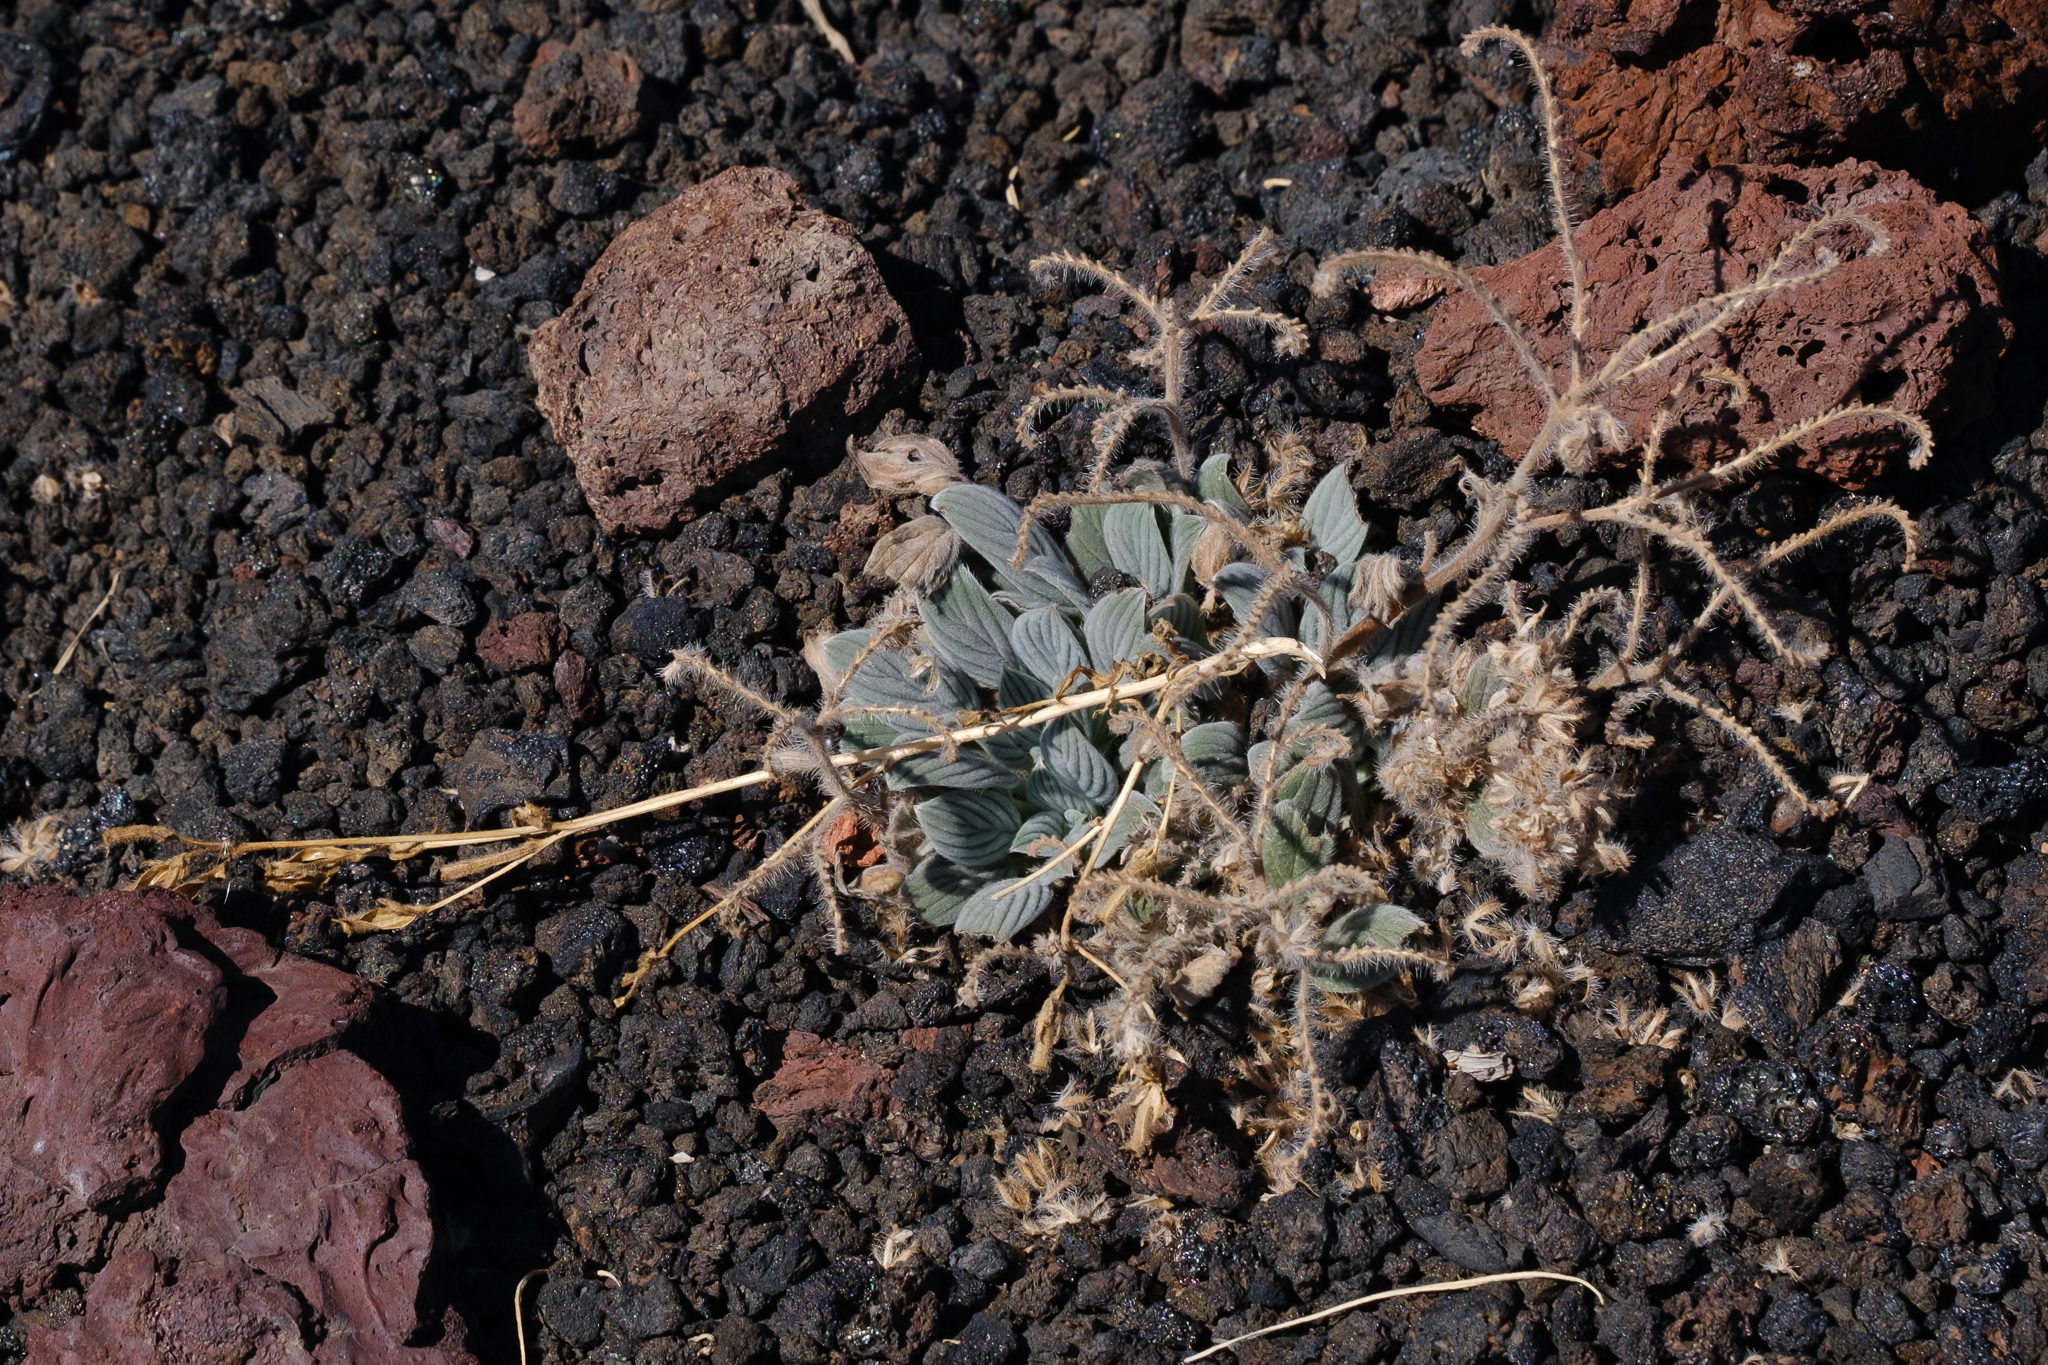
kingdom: Plantae
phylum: Tracheophyta
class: Magnoliopsida
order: Boraginales
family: Hydrophyllaceae
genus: Phacelia
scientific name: Phacelia hastata
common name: Silver-leaved phacelia
